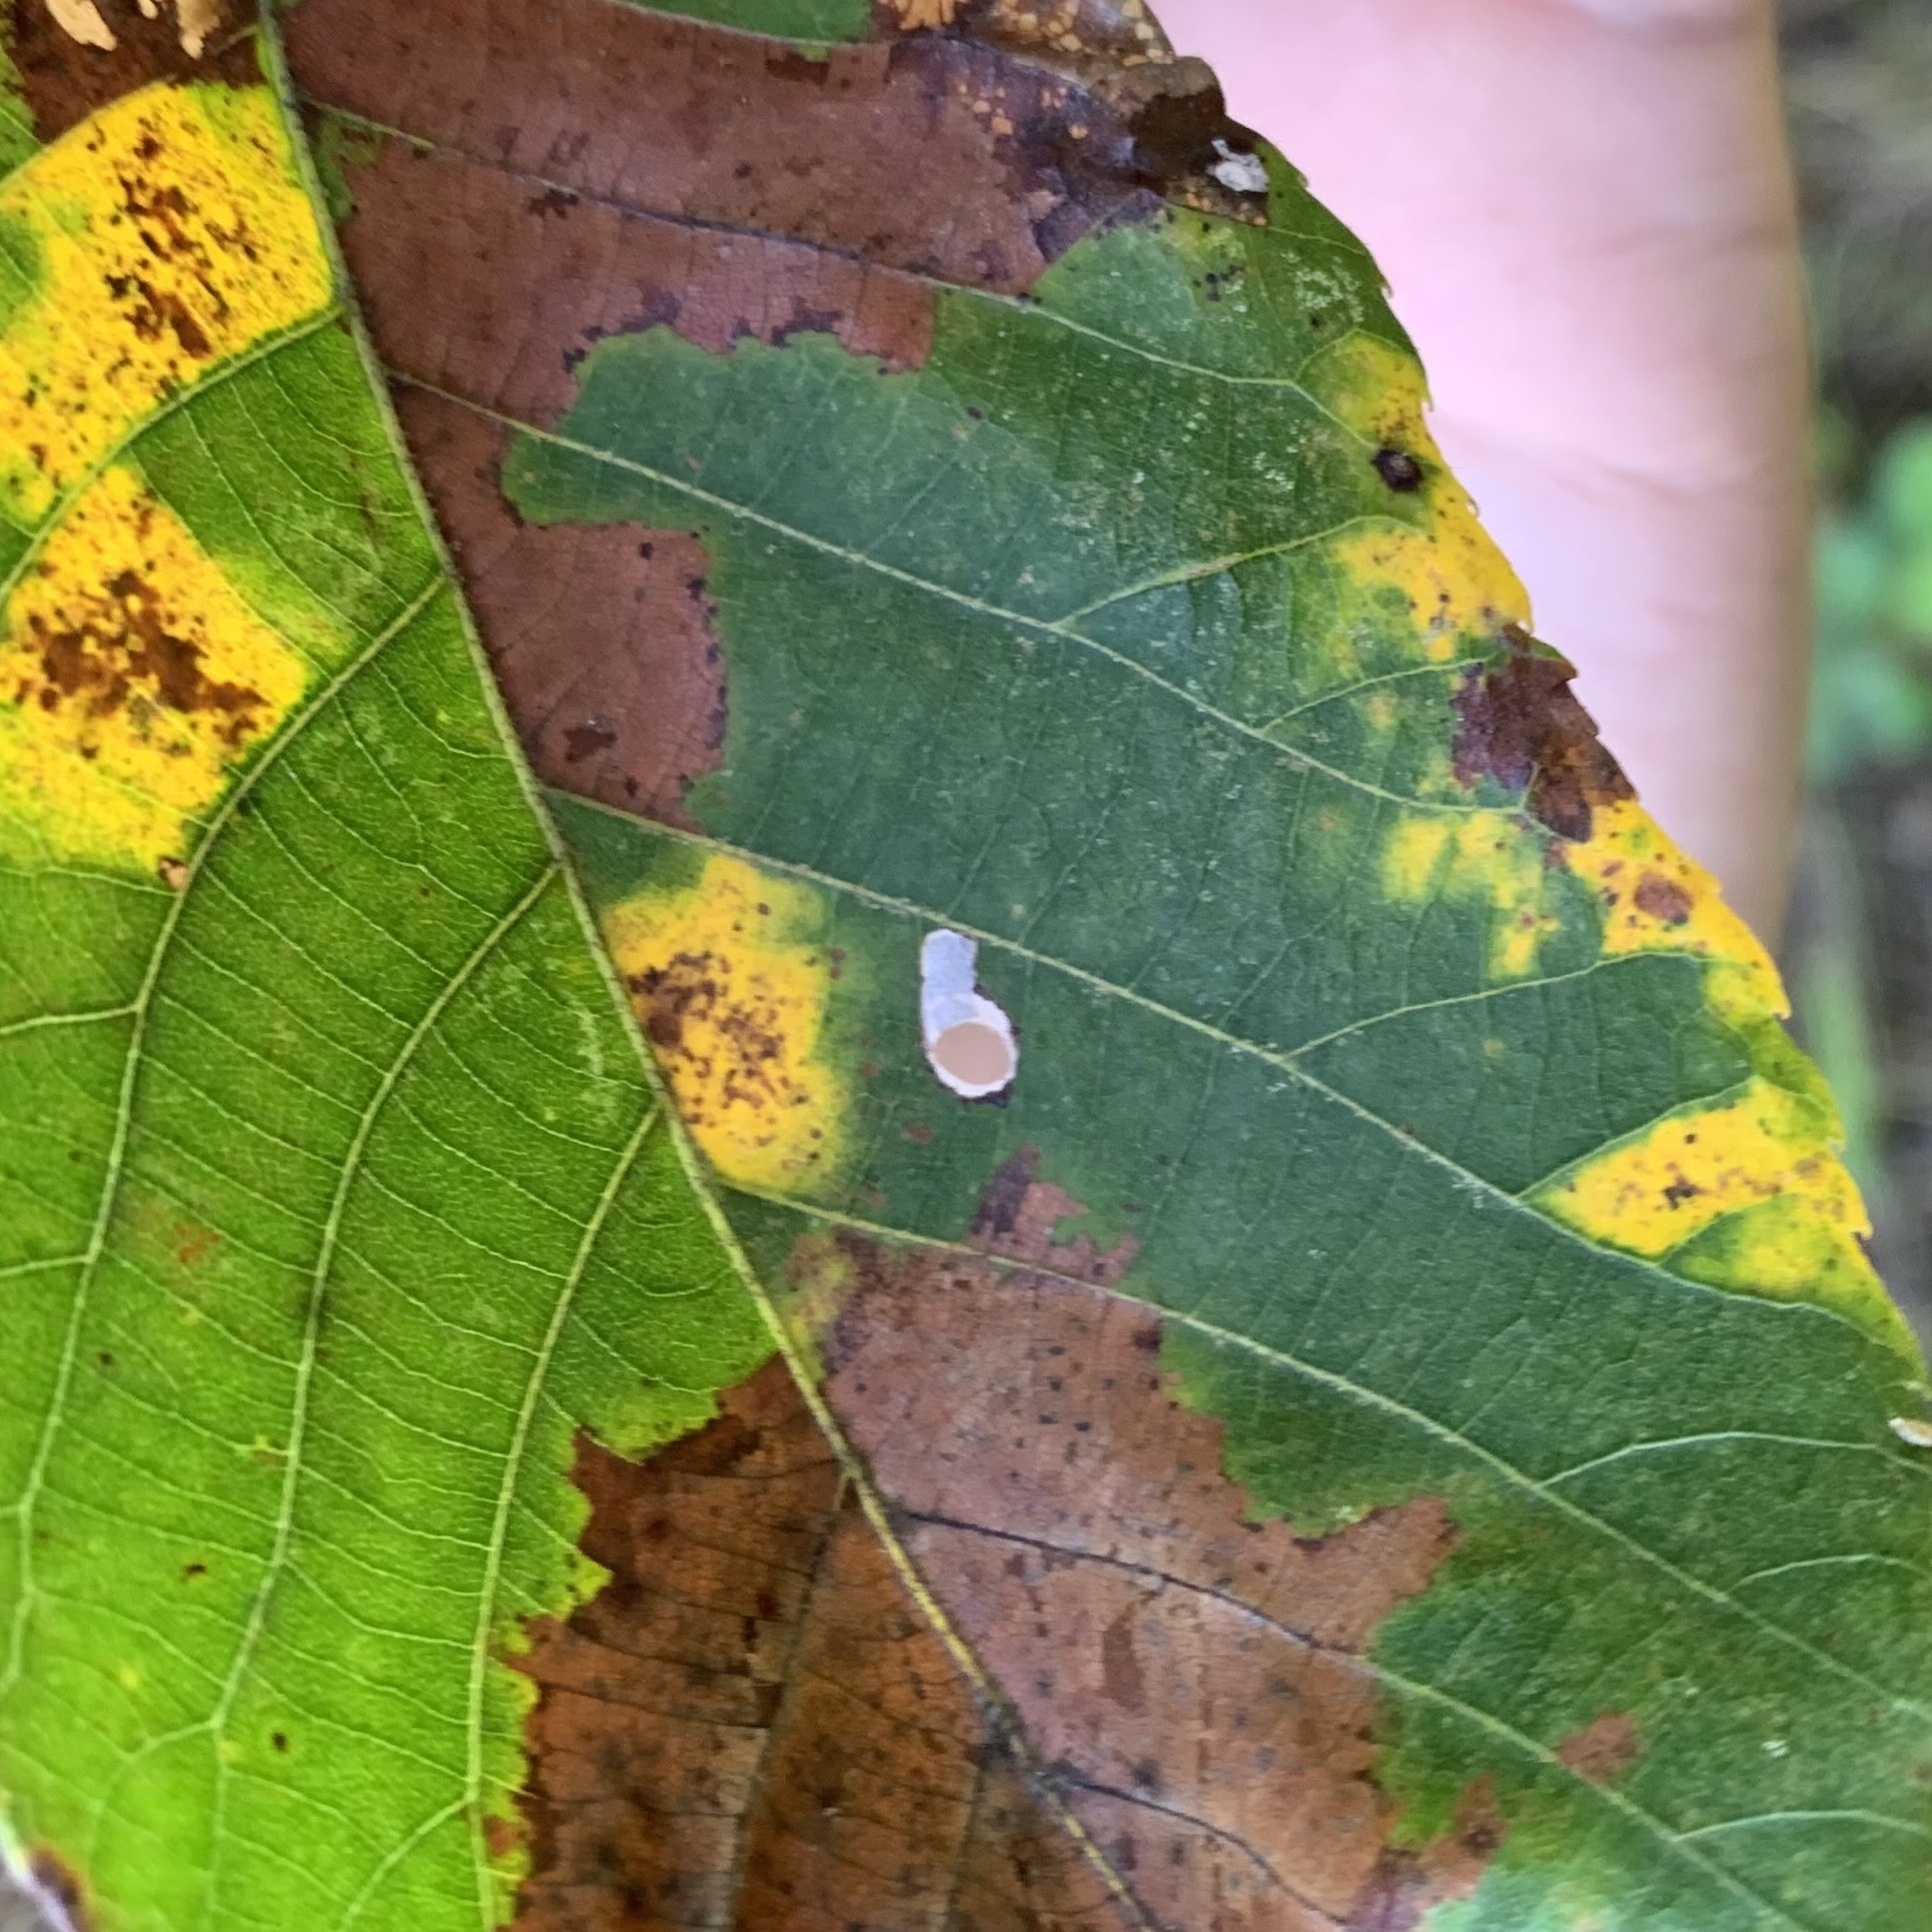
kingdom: Animalia
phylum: Arthropoda
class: Insecta
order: Lepidoptera
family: Heliozelidae
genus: Coptodisca
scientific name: Coptodisca lucifluella
